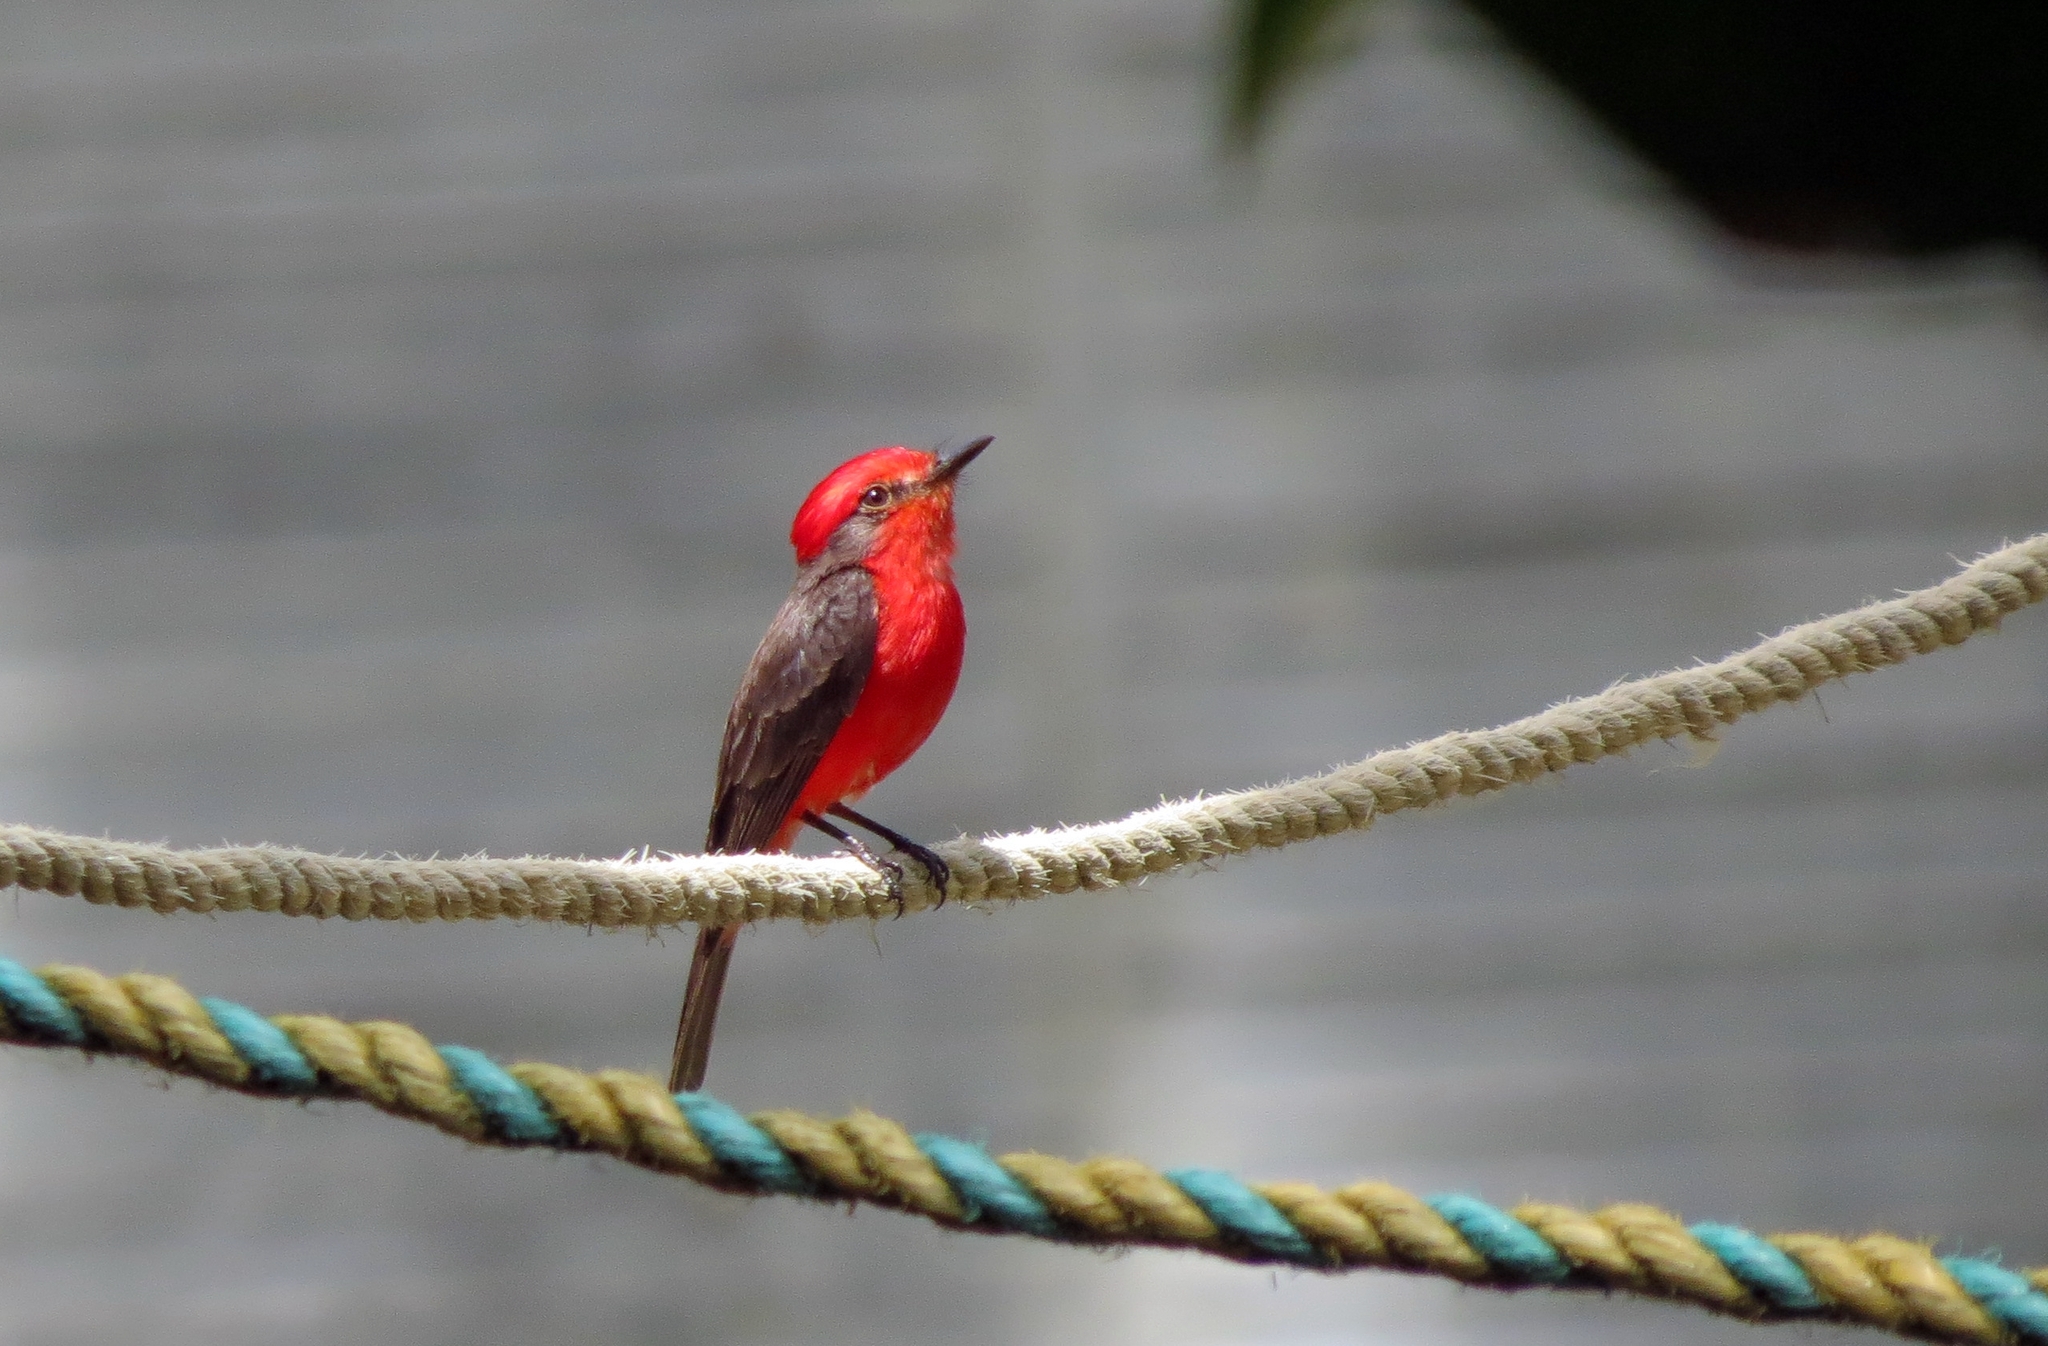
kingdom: Animalia
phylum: Chordata
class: Aves
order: Passeriformes
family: Tyrannidae
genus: Pyrocephalus
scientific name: Pyrocephalus rubinus
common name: Vermilion flycatcher
